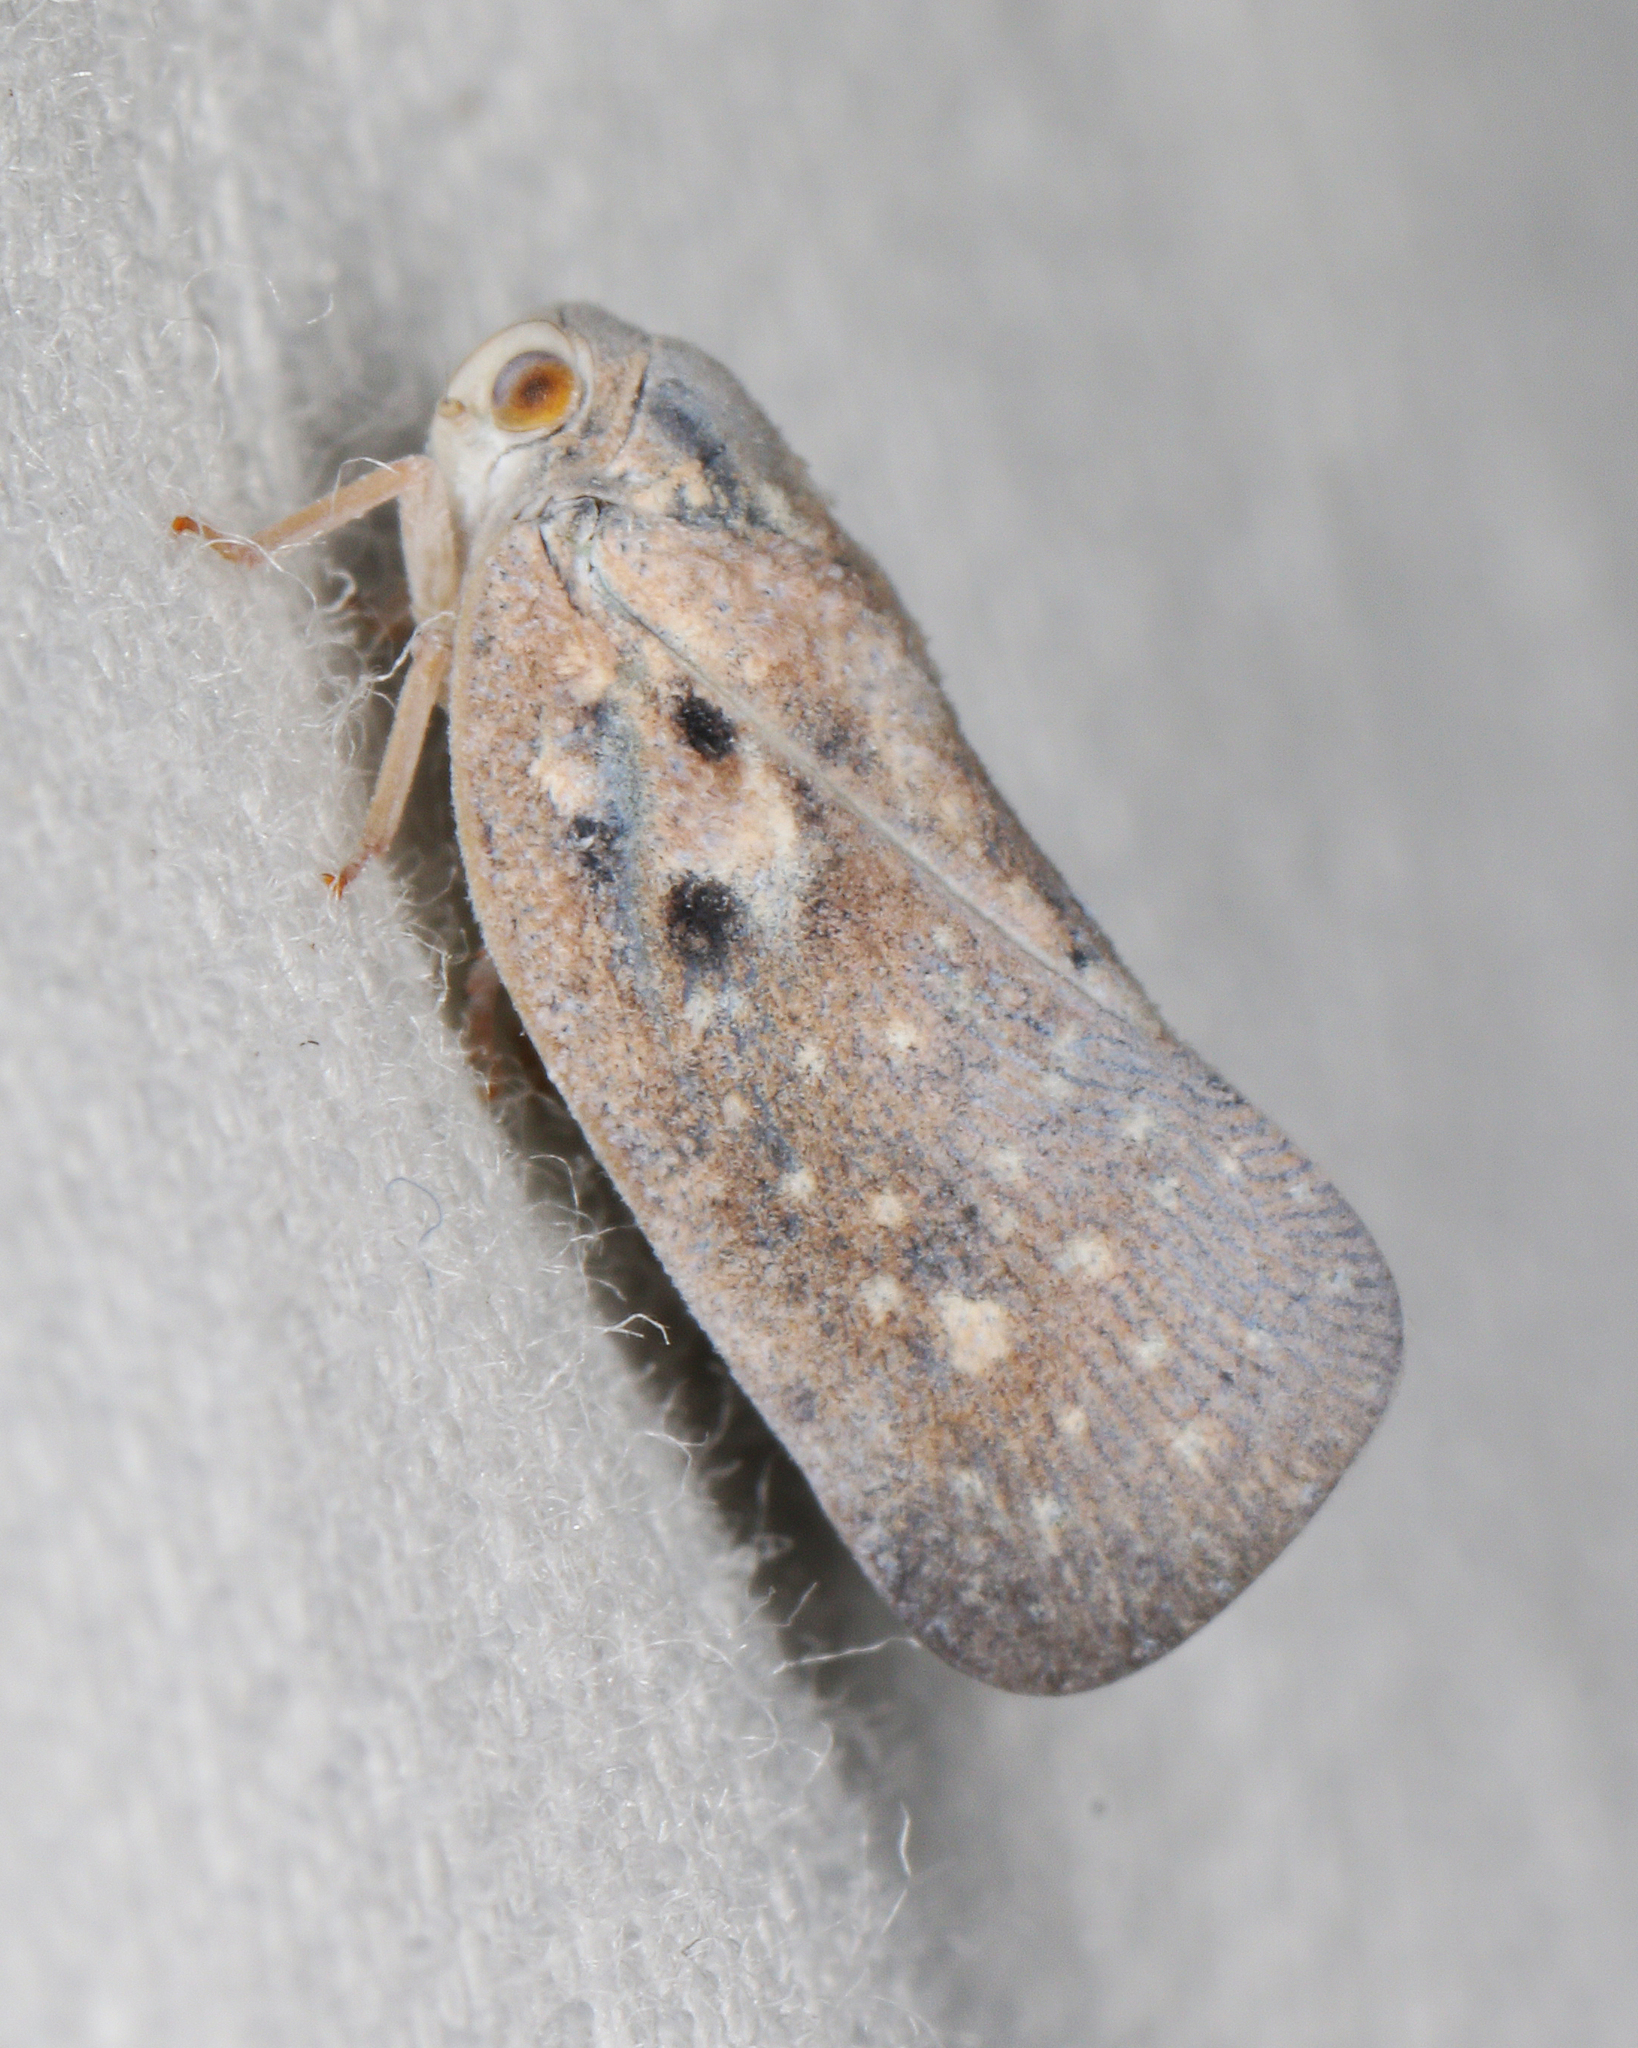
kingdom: Animalia
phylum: Arthropoda
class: Insecta
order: Hemiptera
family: Flatidae
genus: Metcalfa
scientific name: Metcalfa pruinosa
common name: Citrus flatid planthopper
